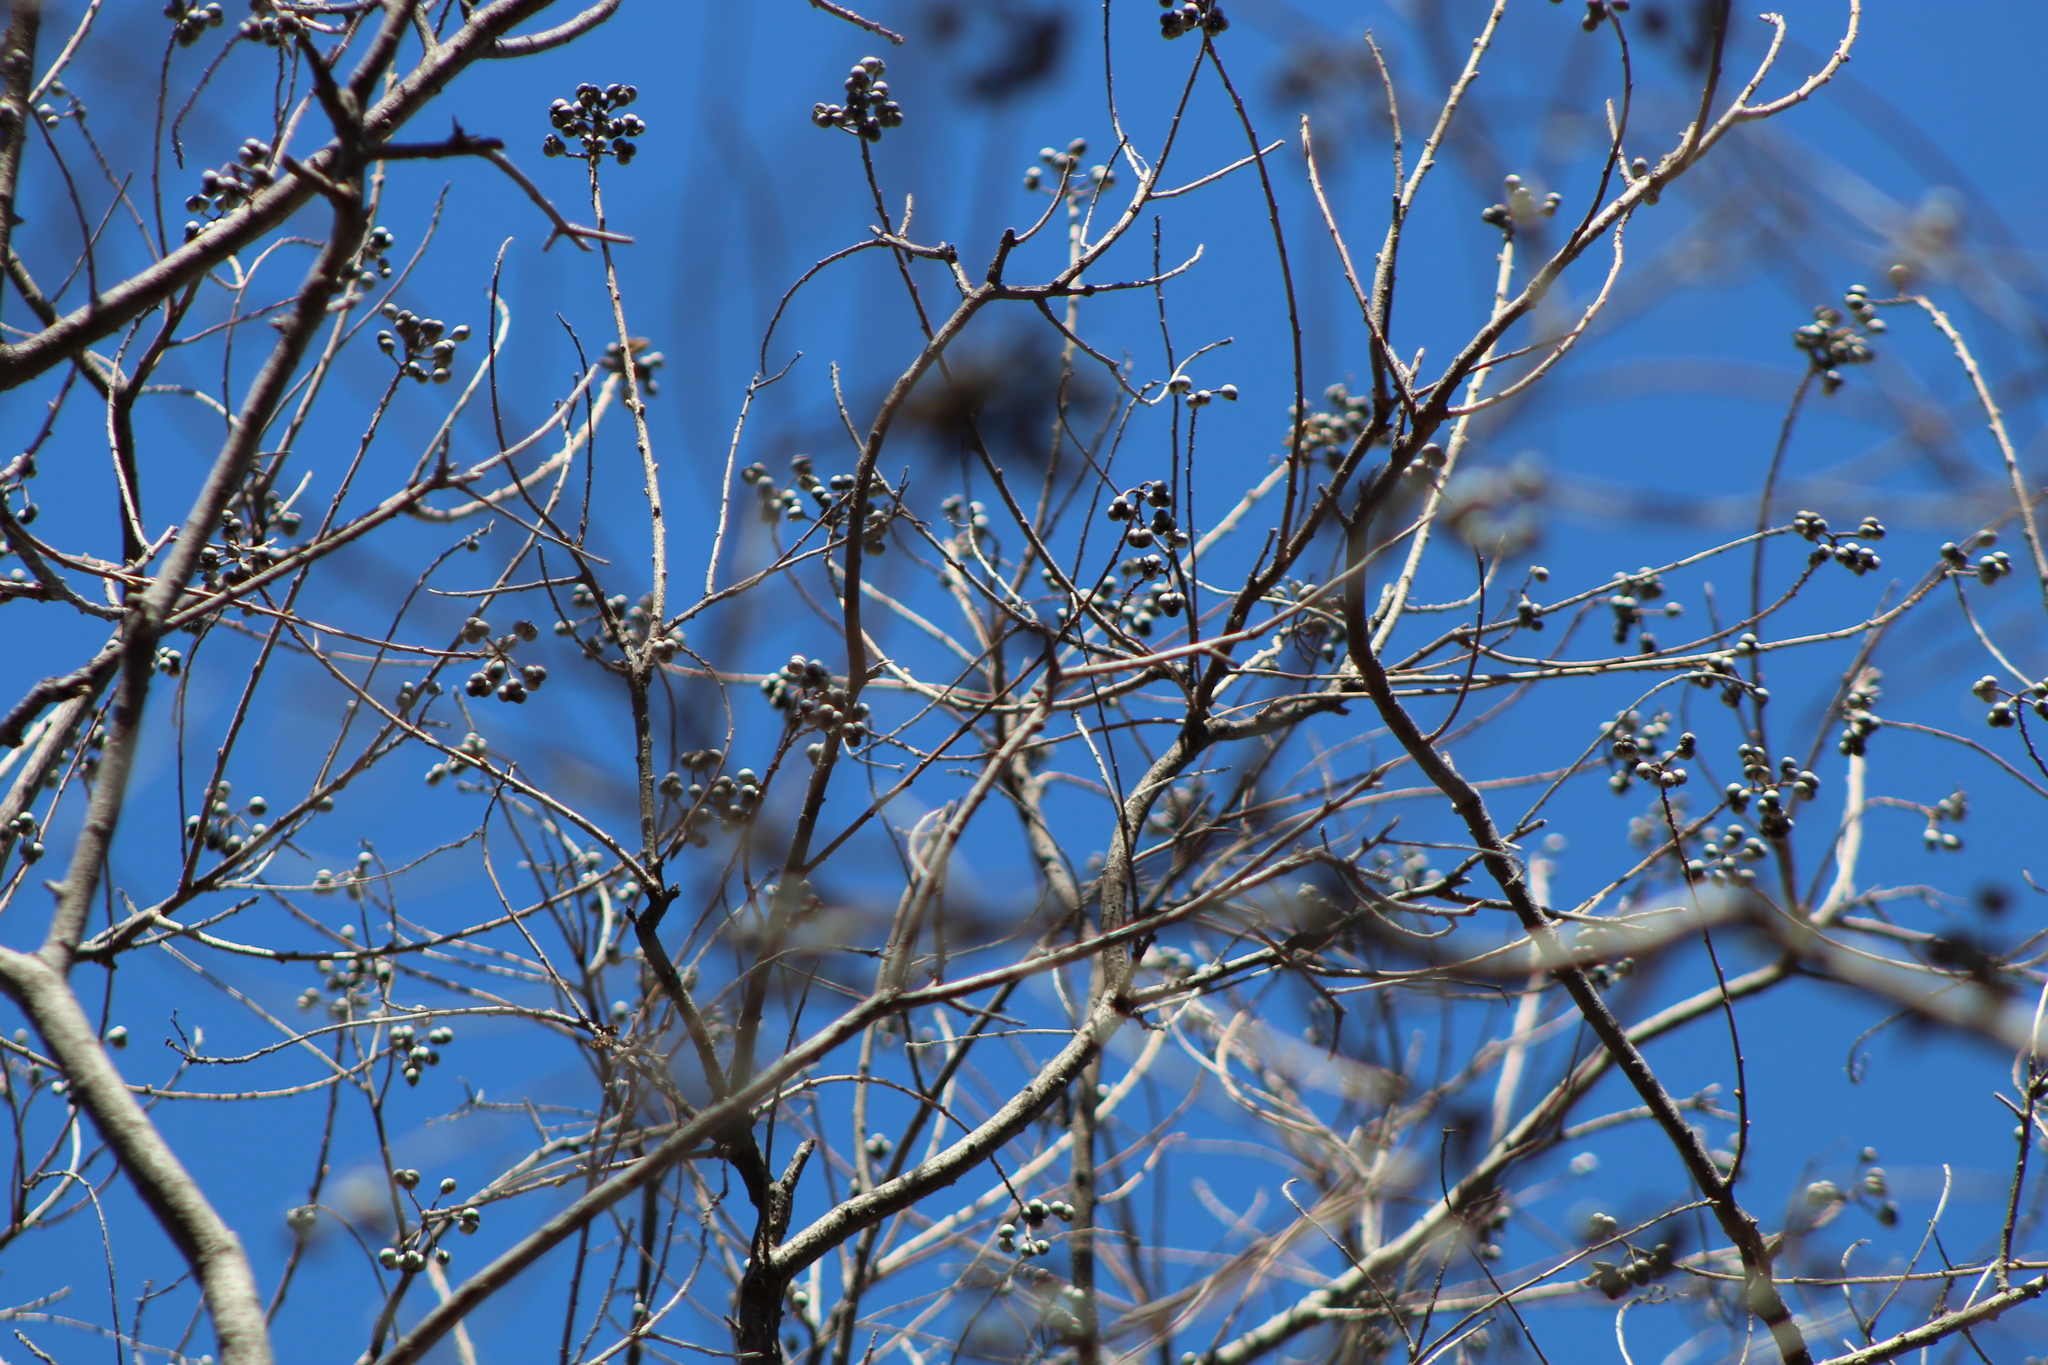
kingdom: Plantae
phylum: Tracheophyta
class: Magnoliopsida
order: Malpighiales
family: Euphorbiaceae
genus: Triadica
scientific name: Triadica sebifera
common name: Chinese tallow
